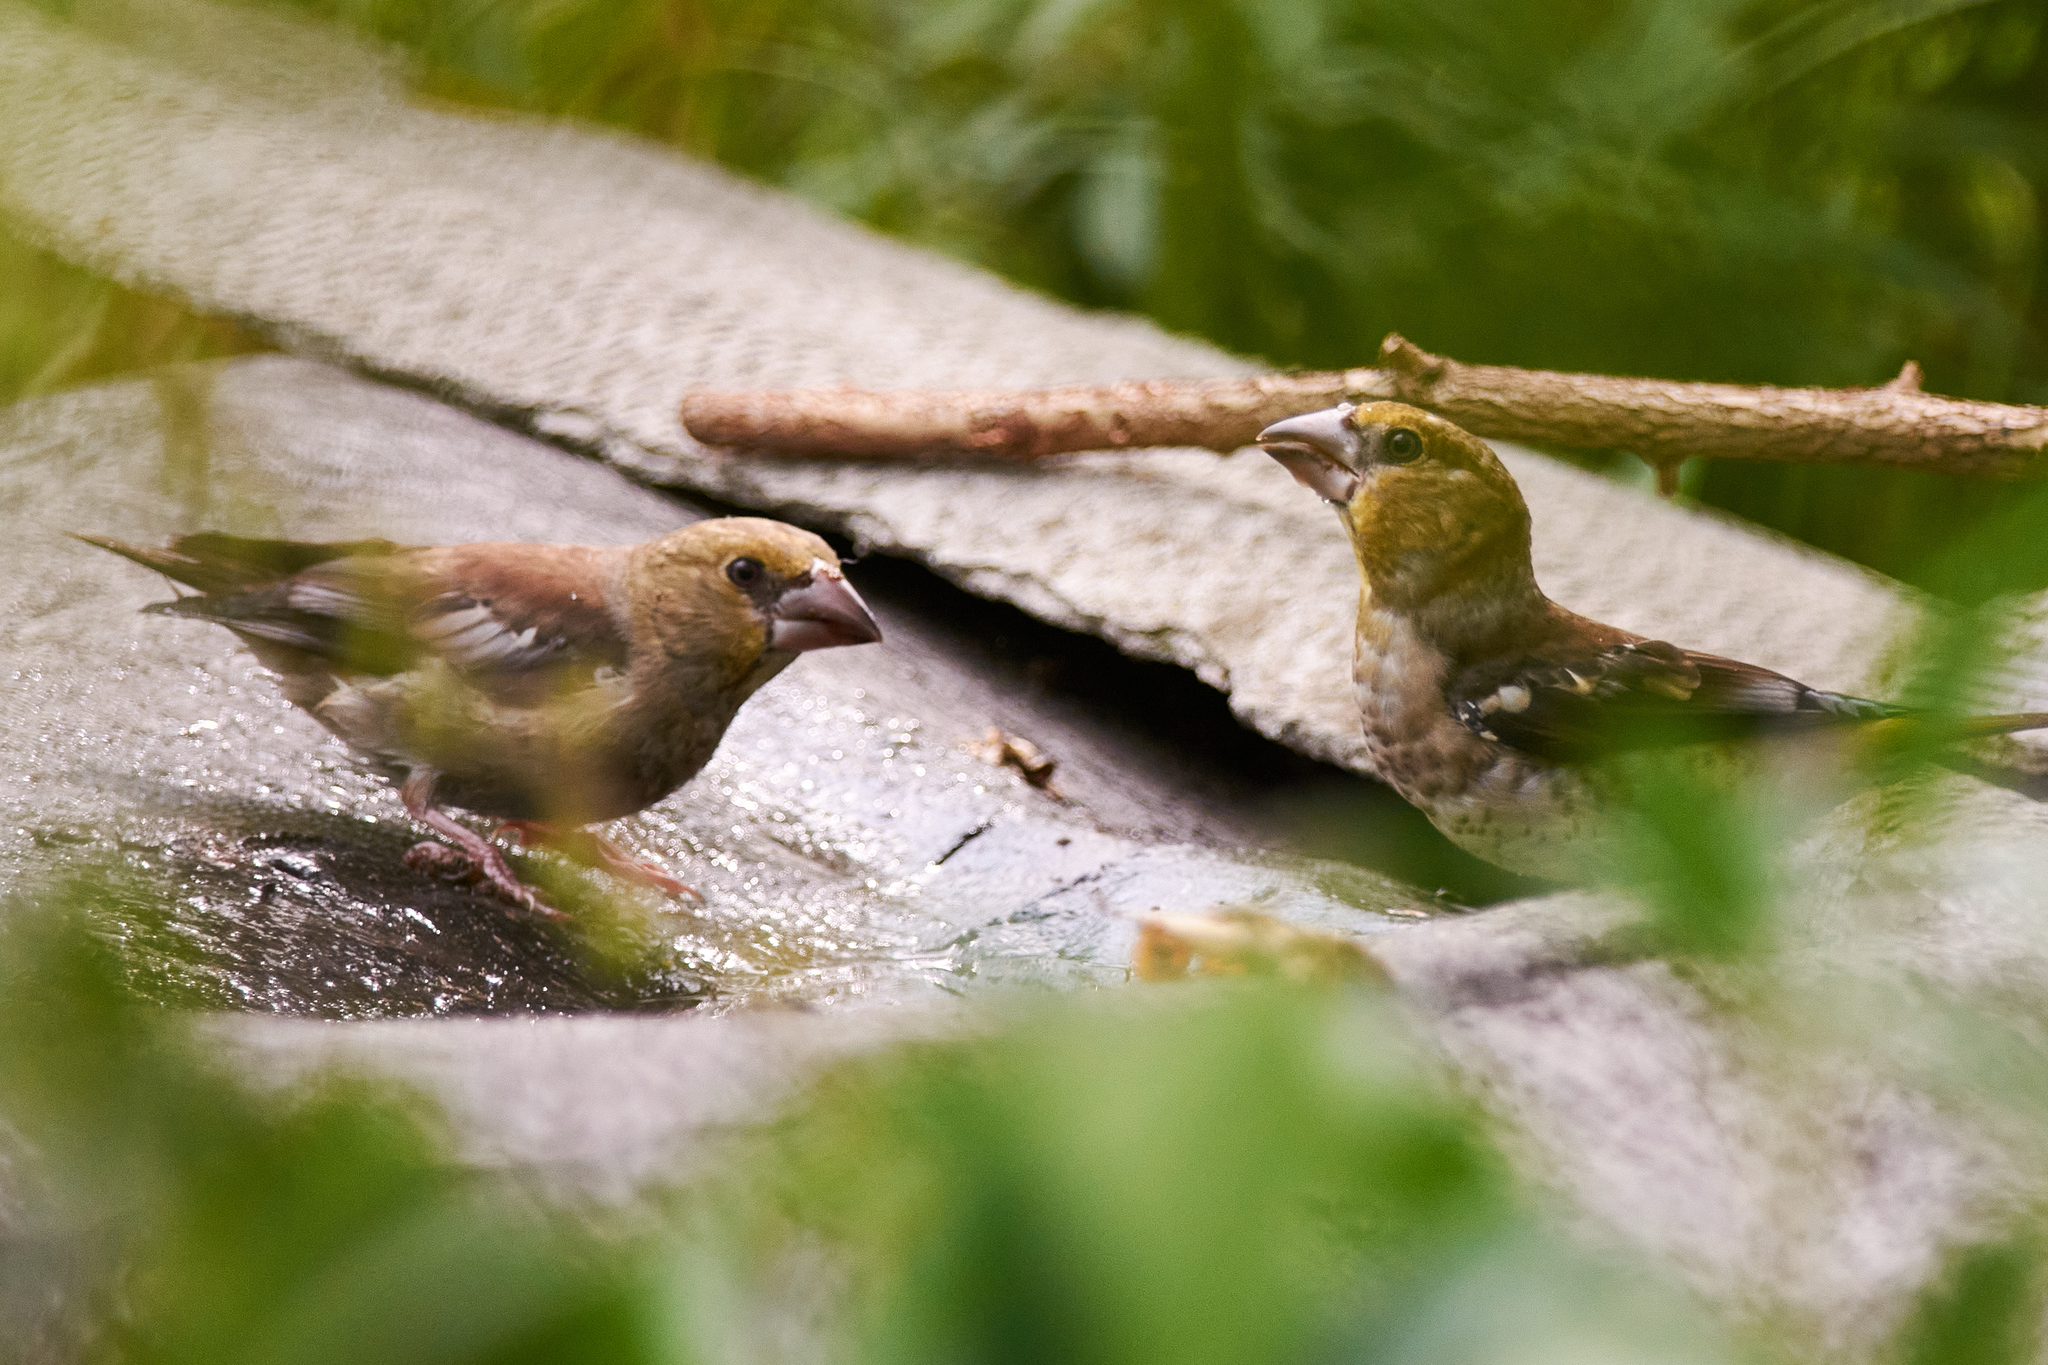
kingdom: Animalia
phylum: Chordata
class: Aves
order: Passeriformes
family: Fringillidae
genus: Coccothraustes
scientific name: Coccothraustes coccothraustes
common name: Hawfinch
